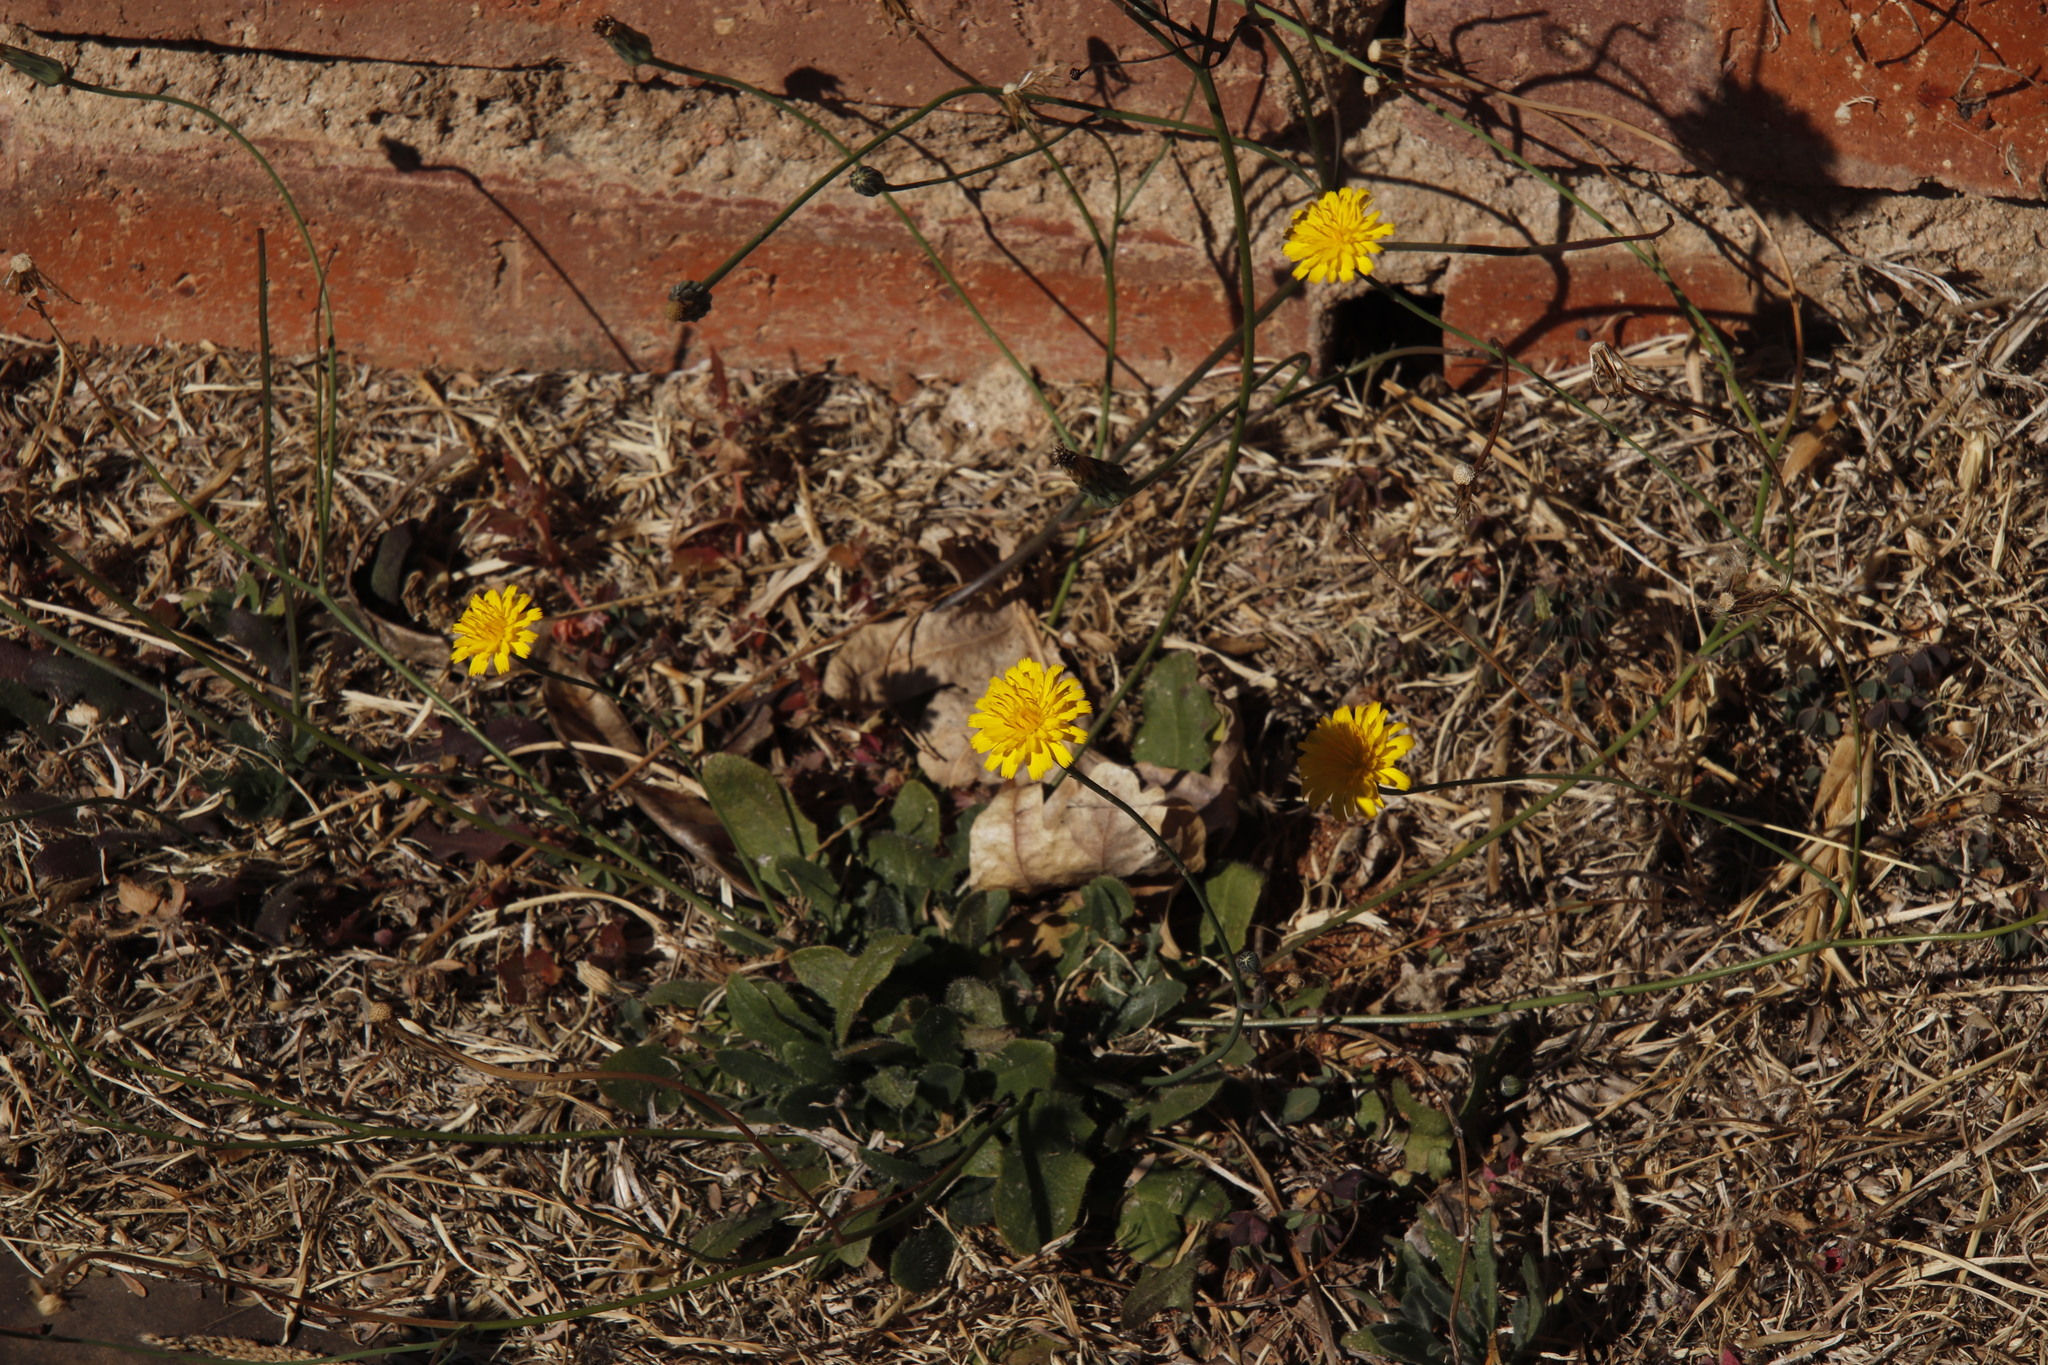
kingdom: Plantae
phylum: Tracheophyta
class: Magnoliopsida
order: Asterales
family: Asteraceae
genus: Hypochaeris
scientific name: Hypochaeris radicata
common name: Flatweed
